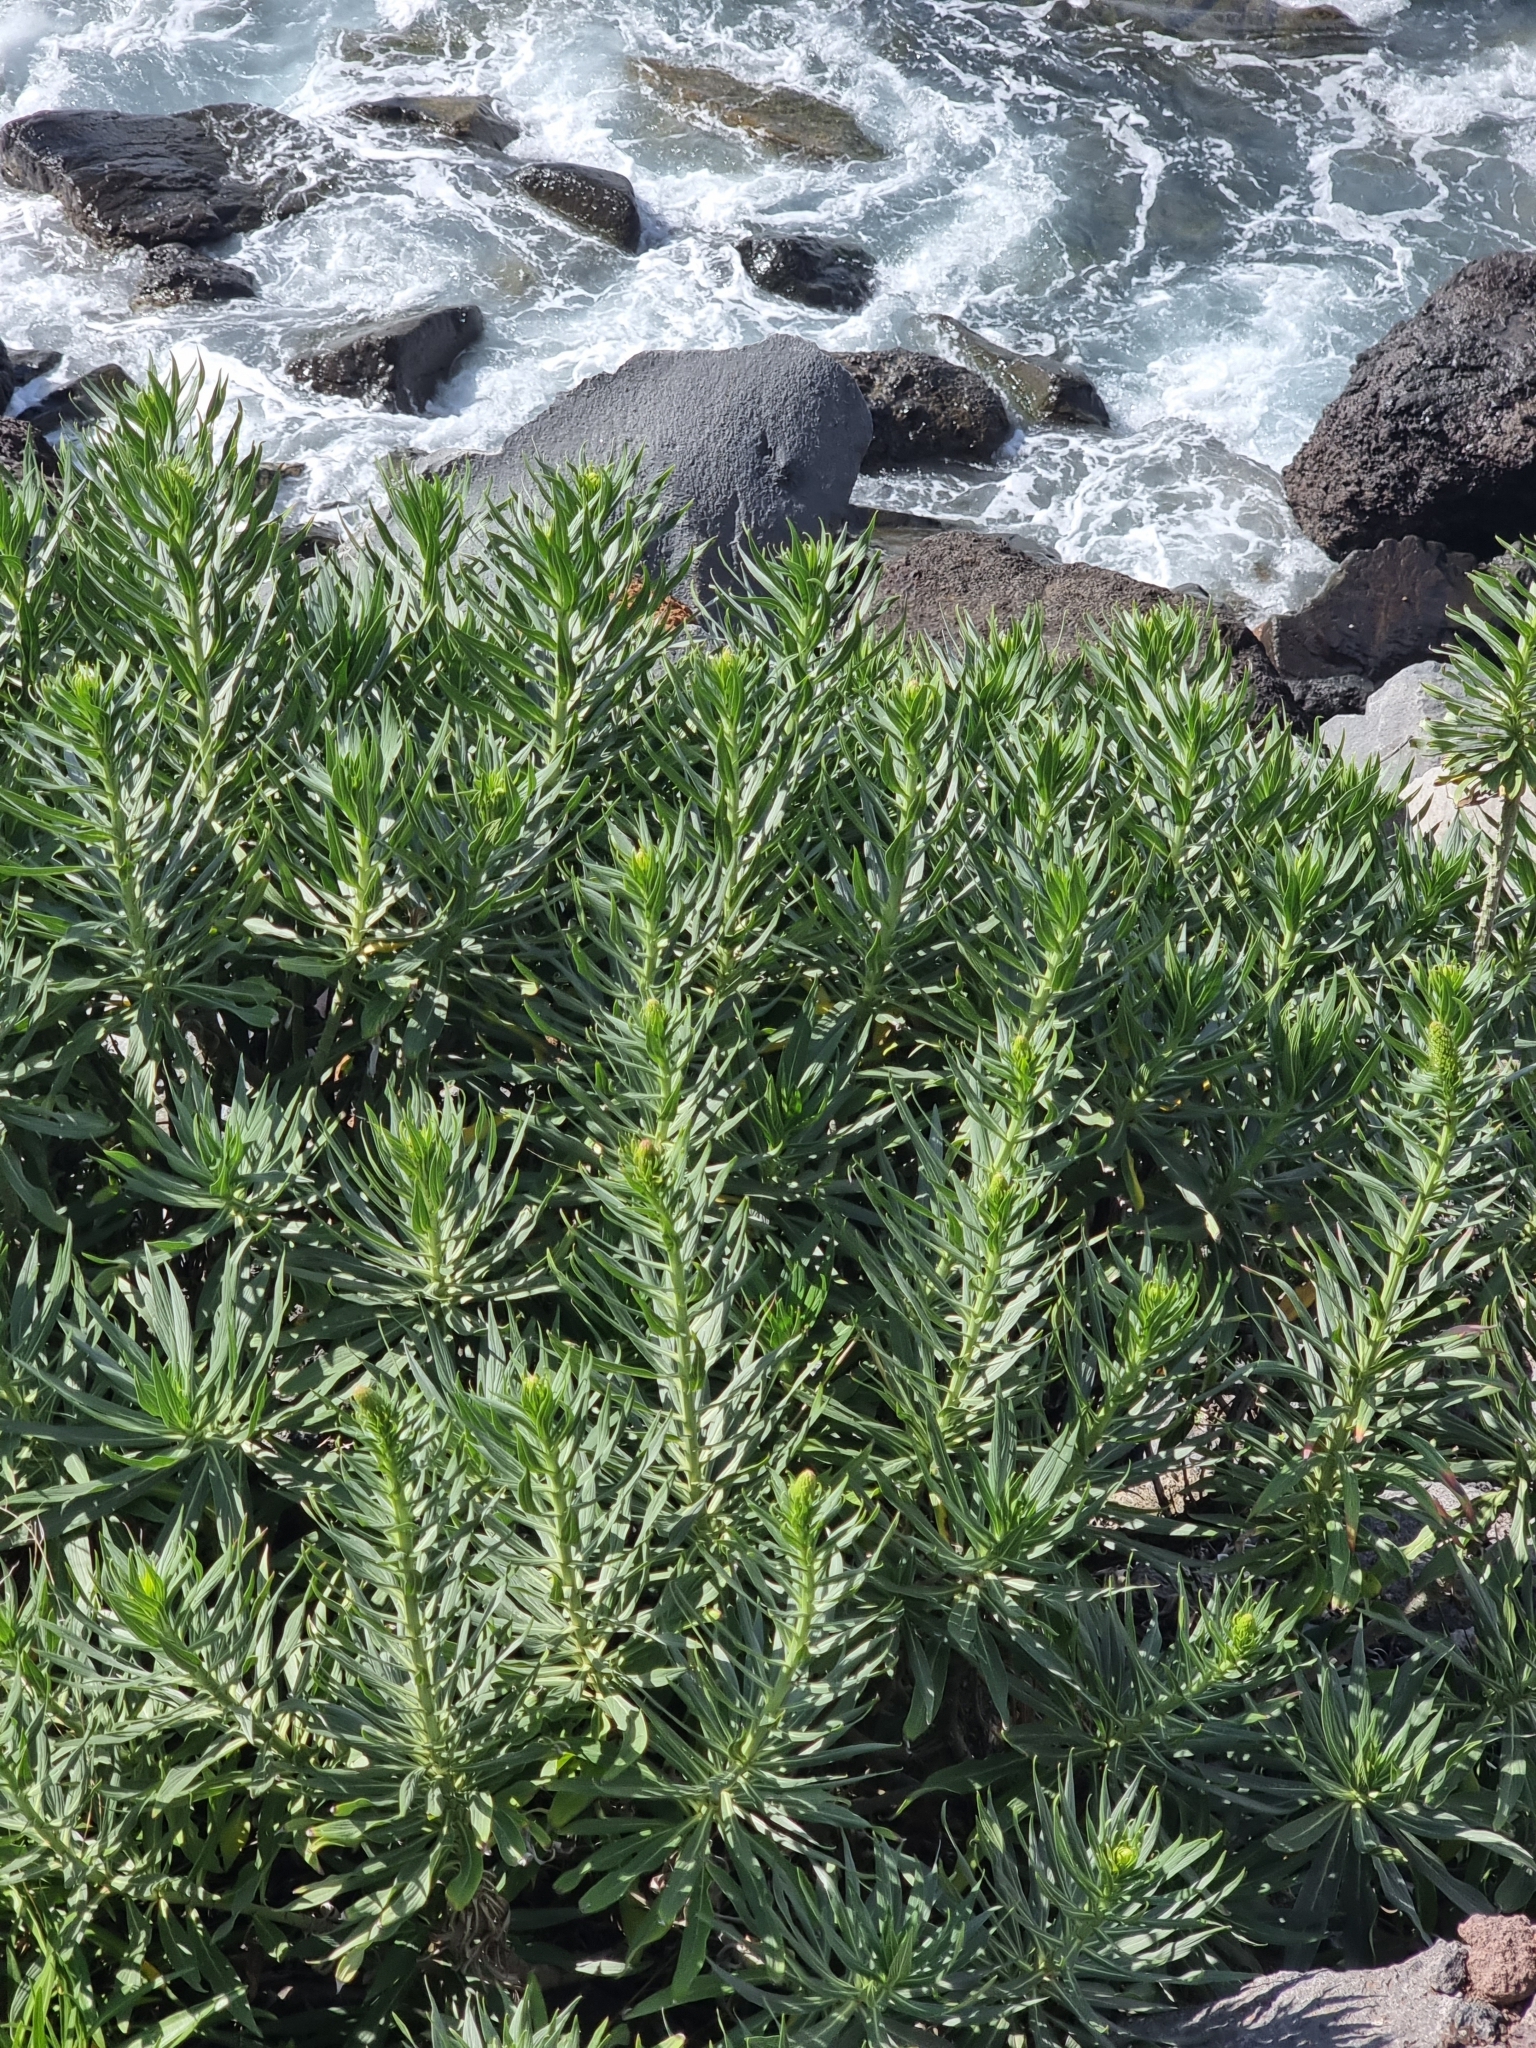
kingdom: Plantae
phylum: Tracheophyta
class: Magnoliopsida
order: Boraginales
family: Boraginaceae
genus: Echium
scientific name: Echium nervosum
